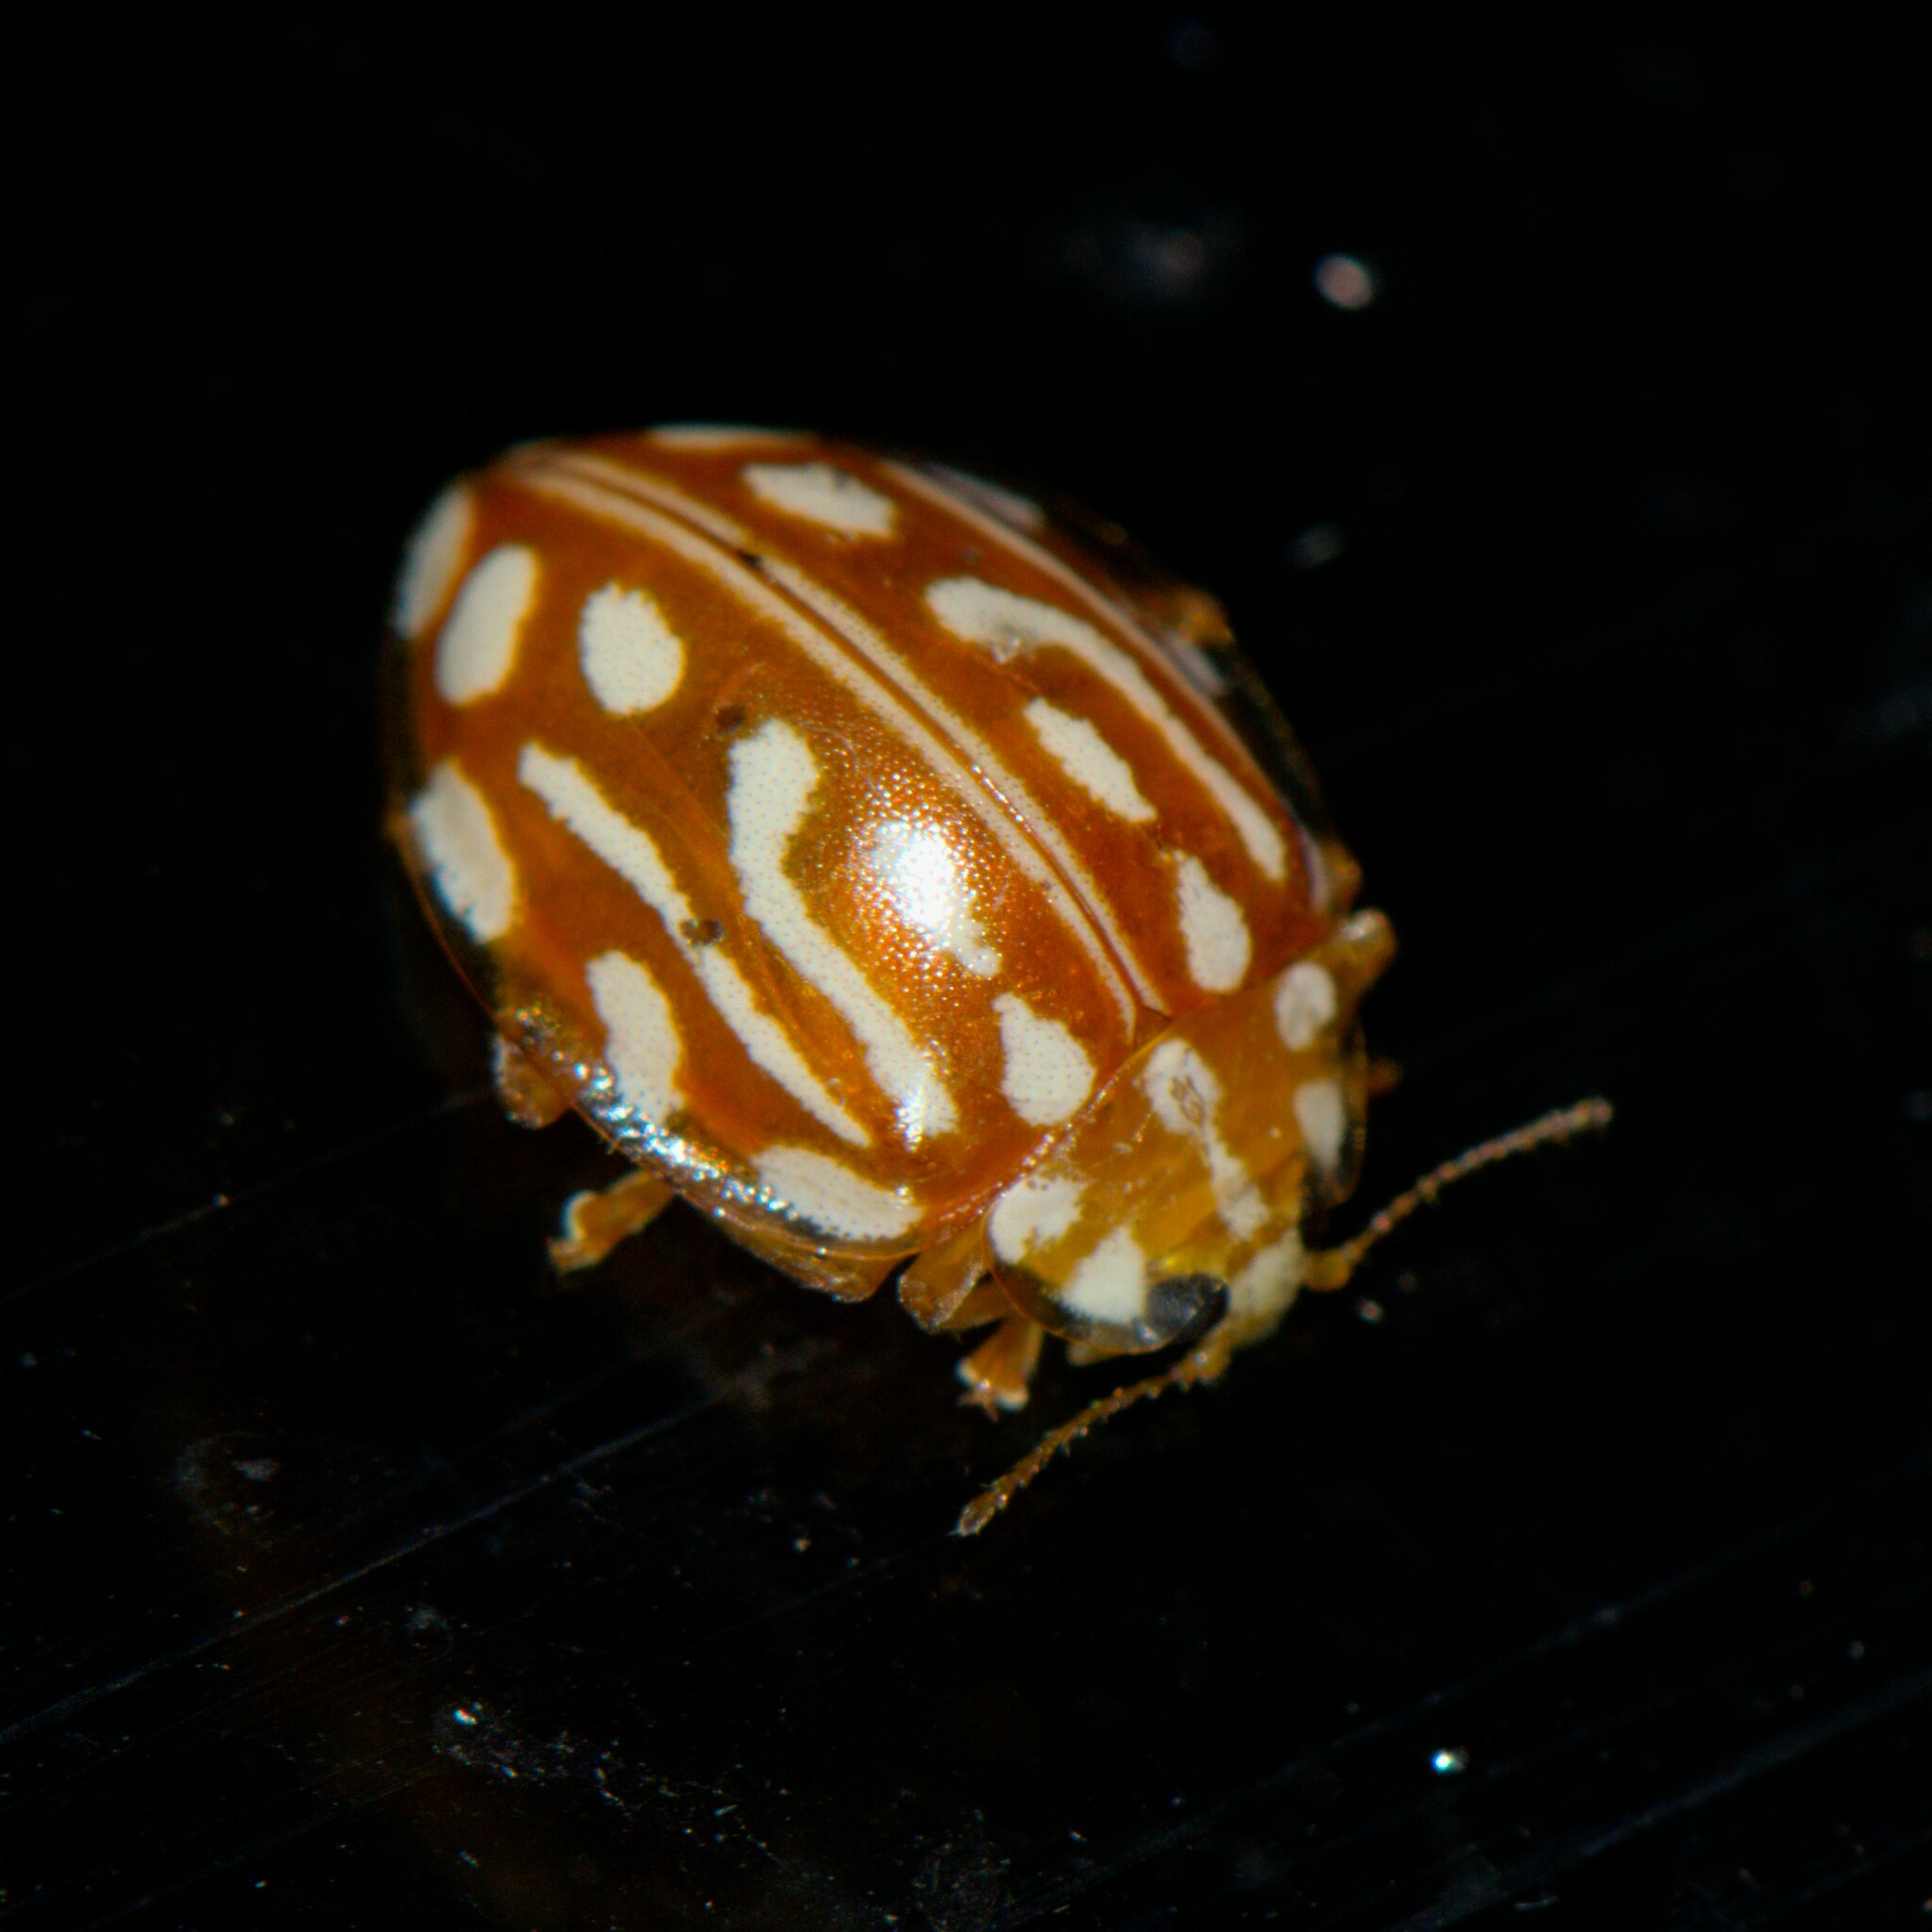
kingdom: Animalia
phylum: Arthropoda
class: Insecta
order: Coleoptera
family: Coccinellidae
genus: Halyzia
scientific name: Halyzia sanscrita
